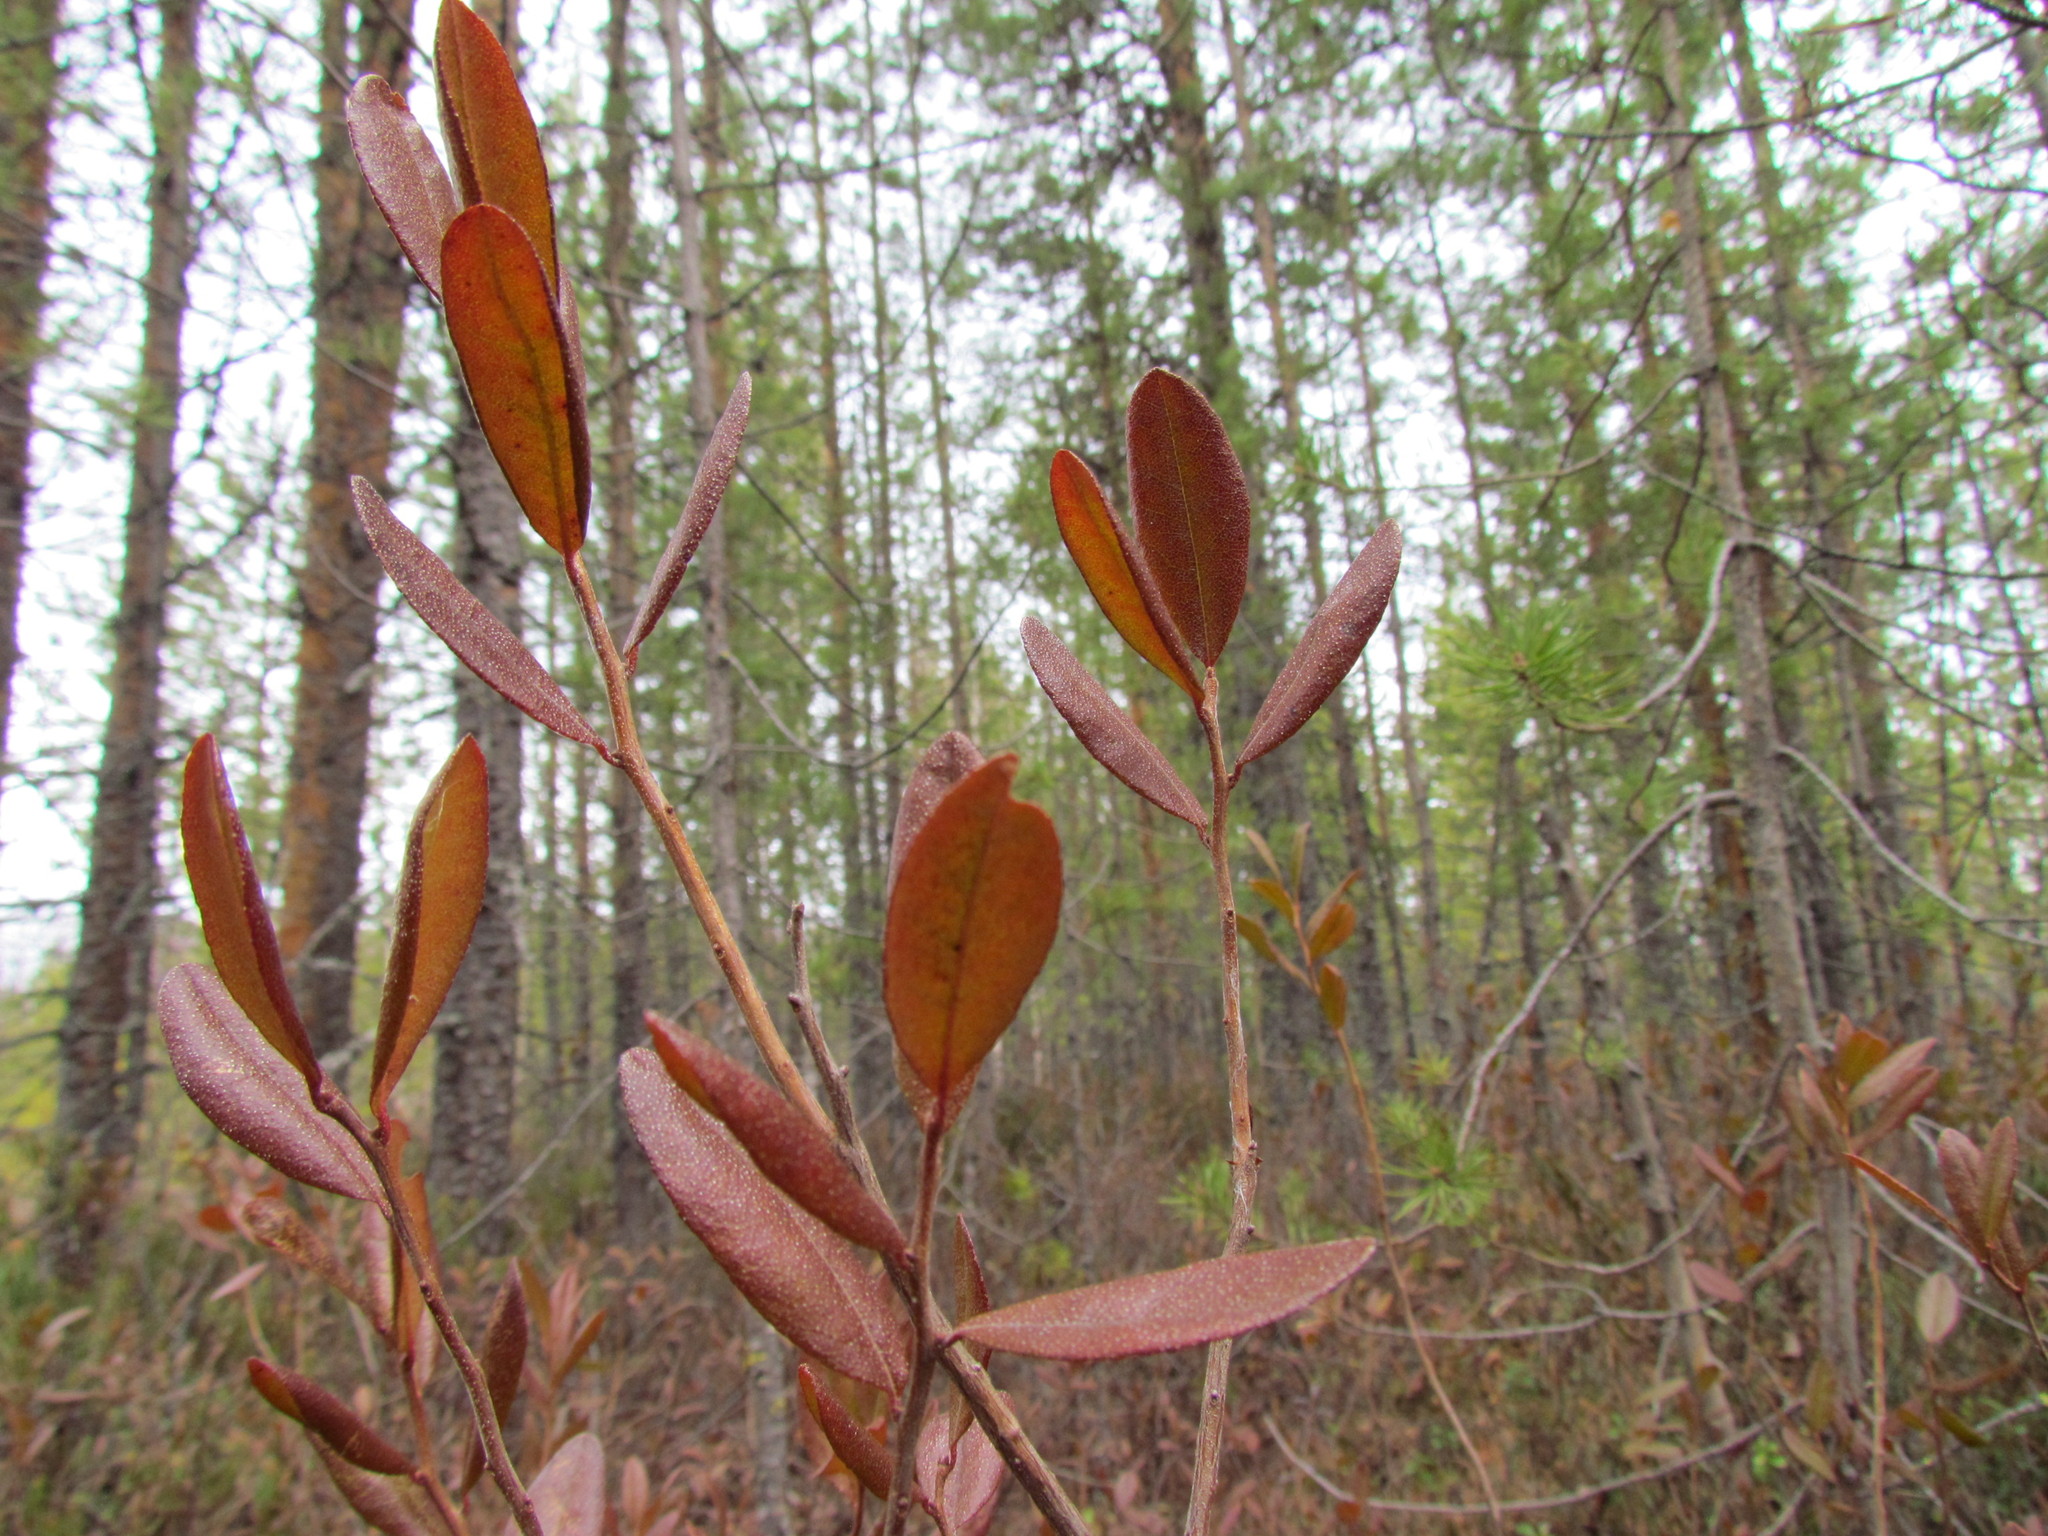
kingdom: Plantae
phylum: Tracheophyta
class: Magnoliopsida
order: Ericales
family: Ericaceae
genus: Chamaedaphne
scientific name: Chamaedaphne calyculata
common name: Leatherleaf
